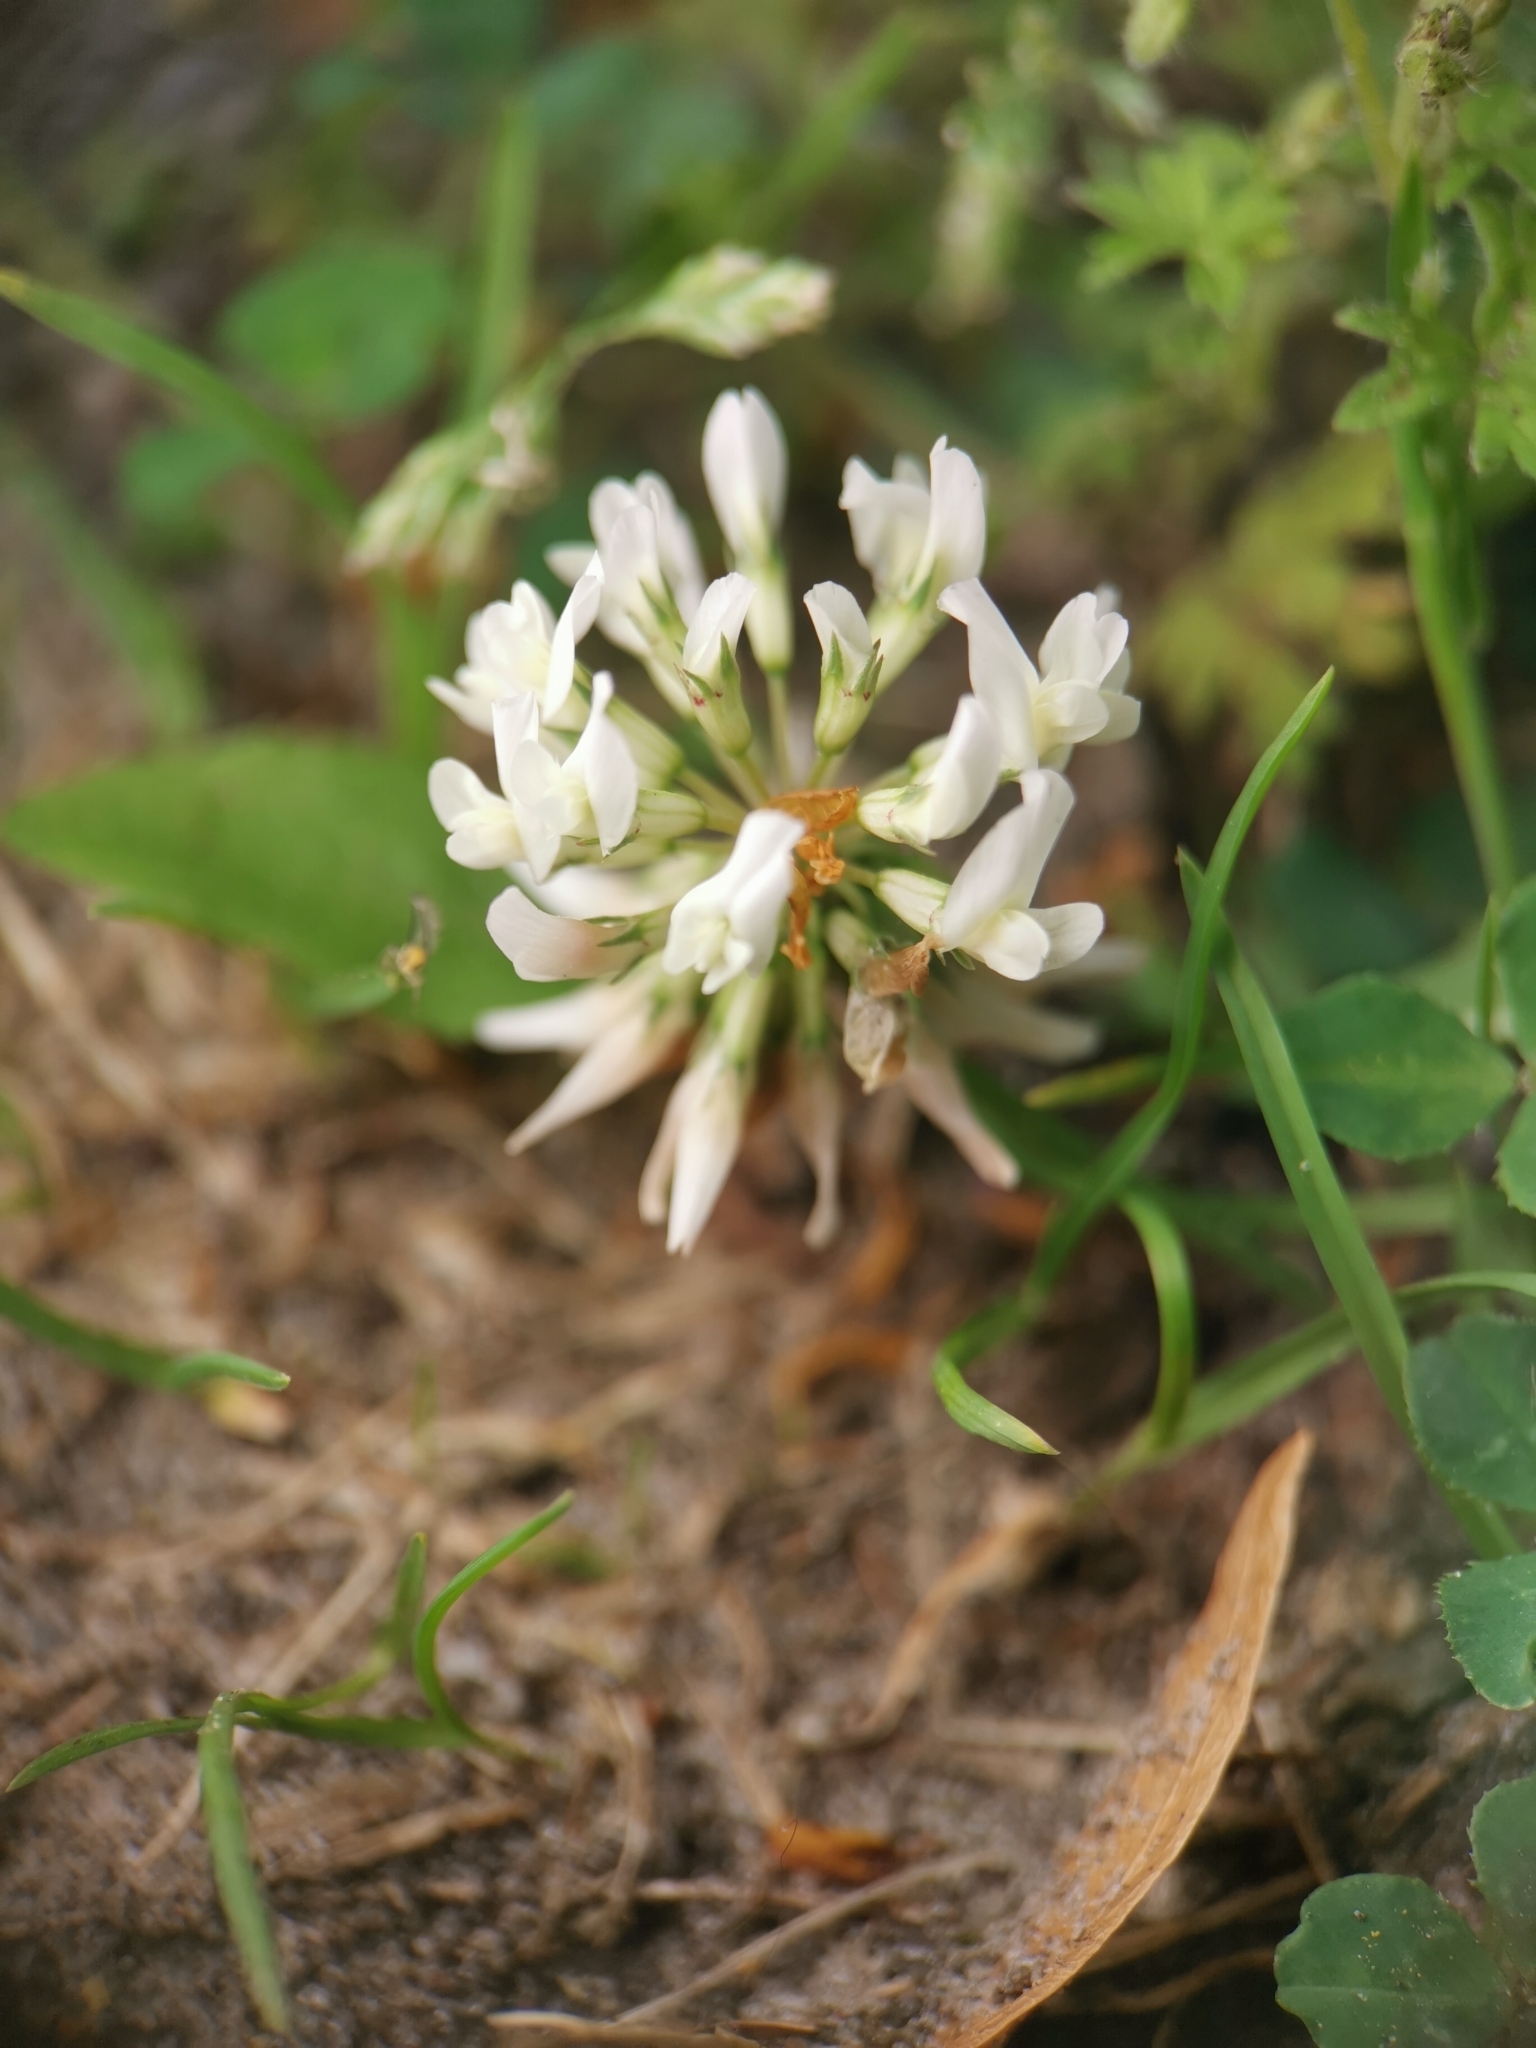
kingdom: Plantae
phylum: Tracheophyta
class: Magnoliopsida
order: Fabales
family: Fabaceae
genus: Trifolium
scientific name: Trifolium repens
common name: White clover
